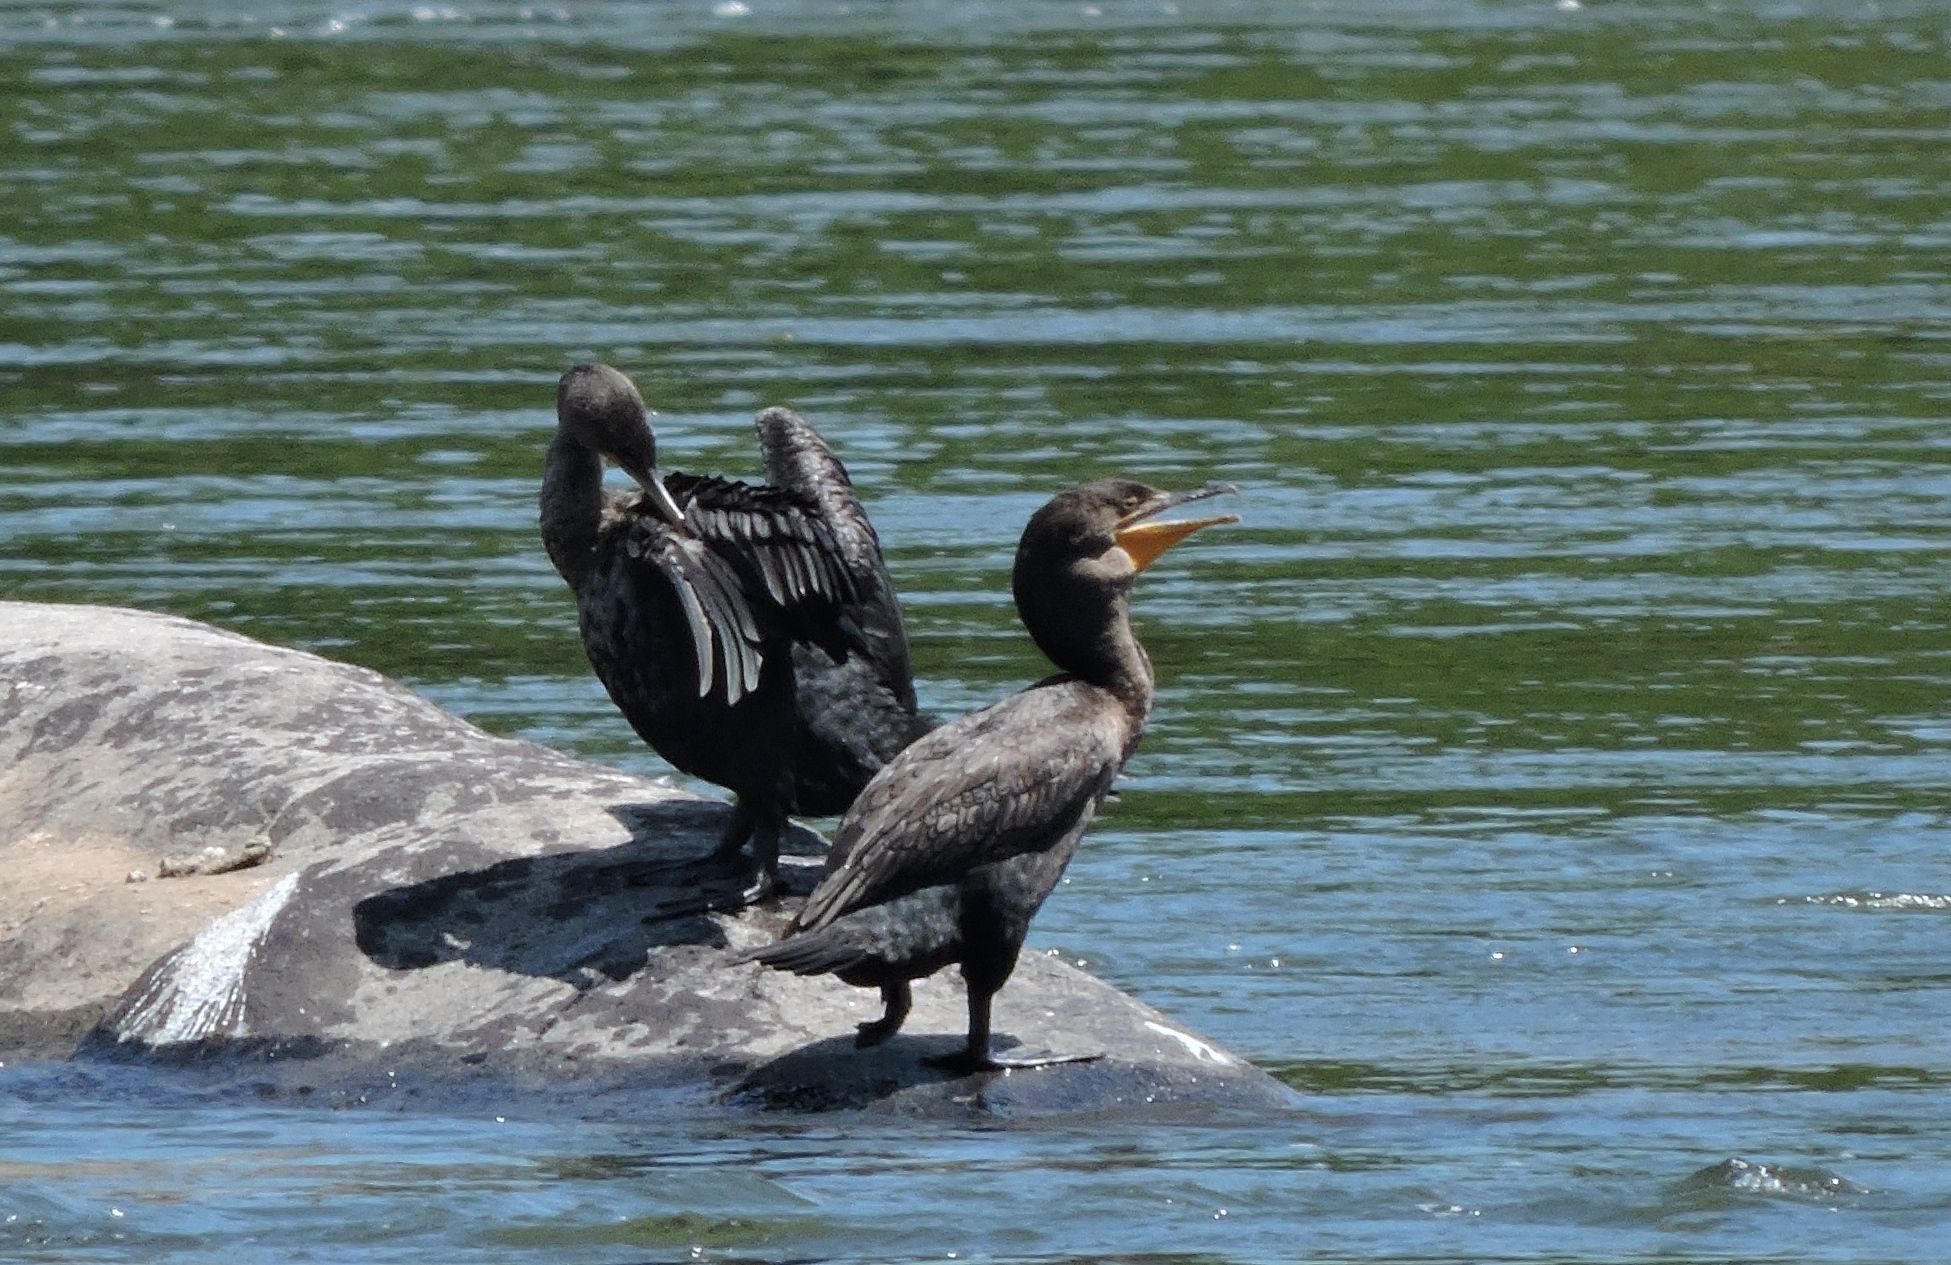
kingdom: Animalia
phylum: Chordata
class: Aves
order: Suliformes
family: Phalacrocoracidae
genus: Phalacrocorax
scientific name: Phalacrocorax auritus
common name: Double-crested cormorant
